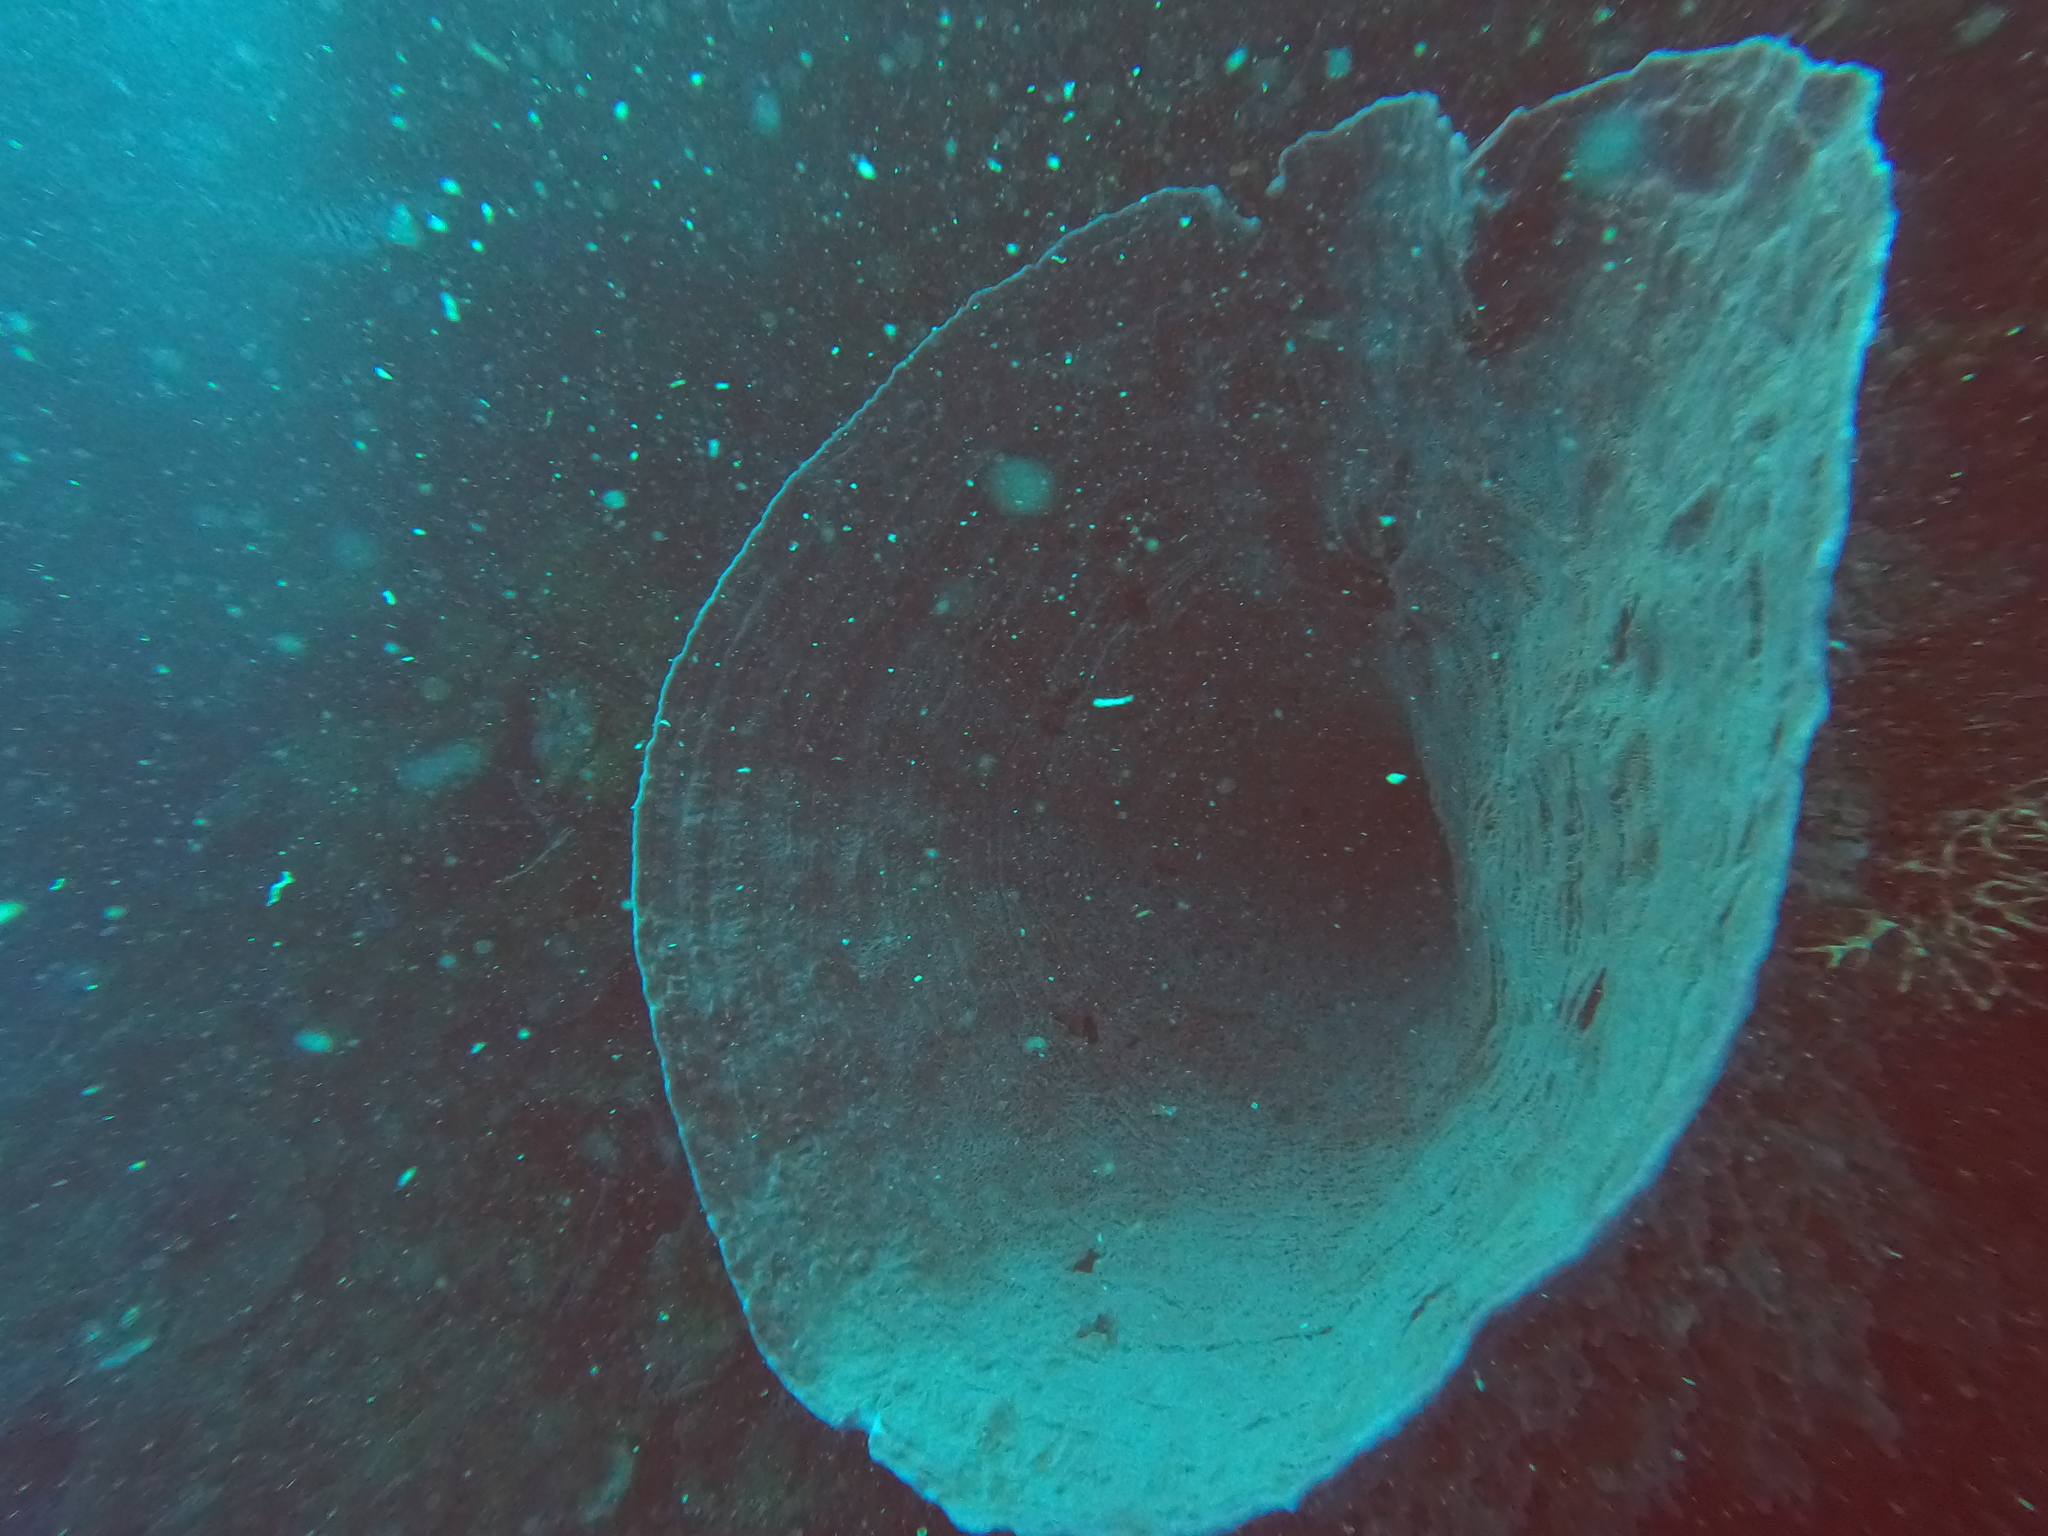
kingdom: Animalia
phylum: Porifera
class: Demospongiae
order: Haplosclerida
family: Petrosiidae
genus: Xestospongia
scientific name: Xestospongia muta
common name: Giant barrel sponge
